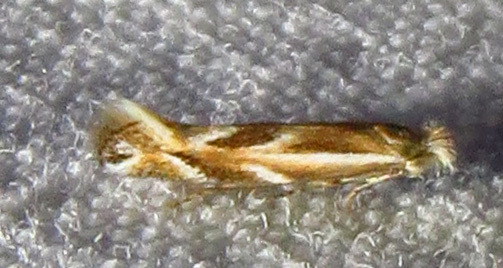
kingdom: Animalia
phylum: Arthropoda
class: Insecta
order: Lepidoptera
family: Bucculatricidae
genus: Bucculatrix
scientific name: Bucculatrix angustata
